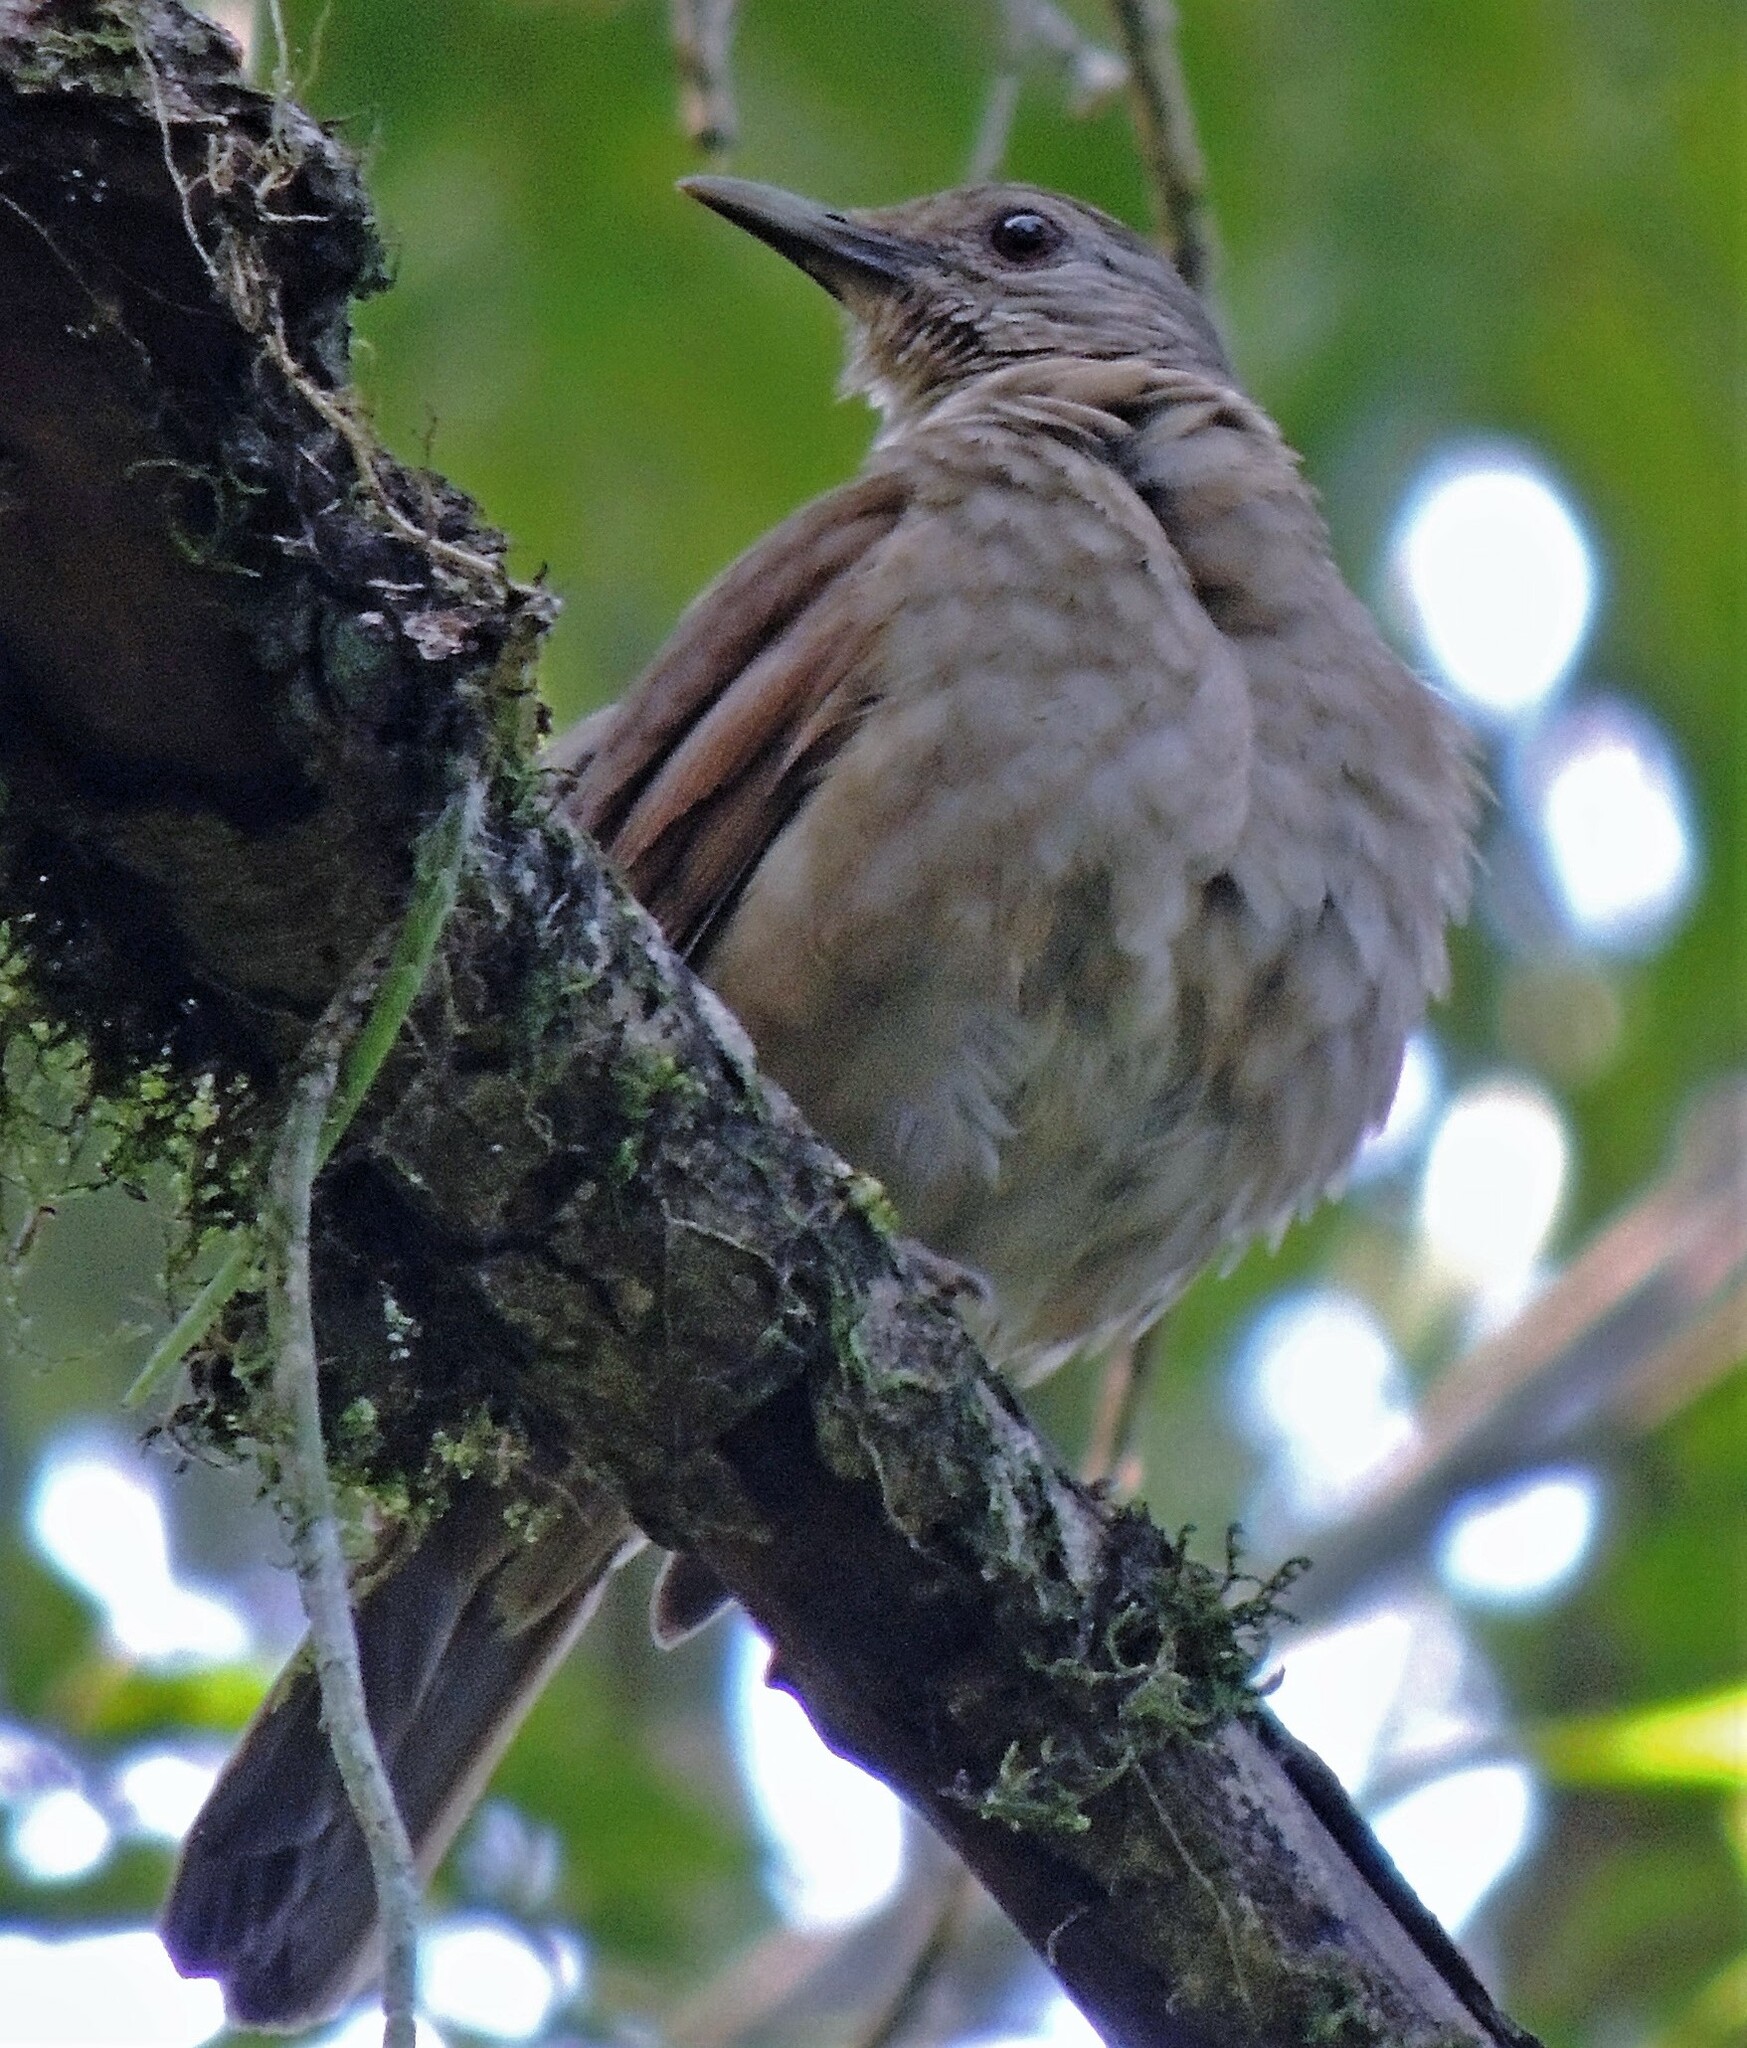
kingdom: Animalia
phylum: Chordata
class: Aves
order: Passeriformes
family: Turdidae
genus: Turdus
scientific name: Turdus leucomelas
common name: Pale-breasted thrush
